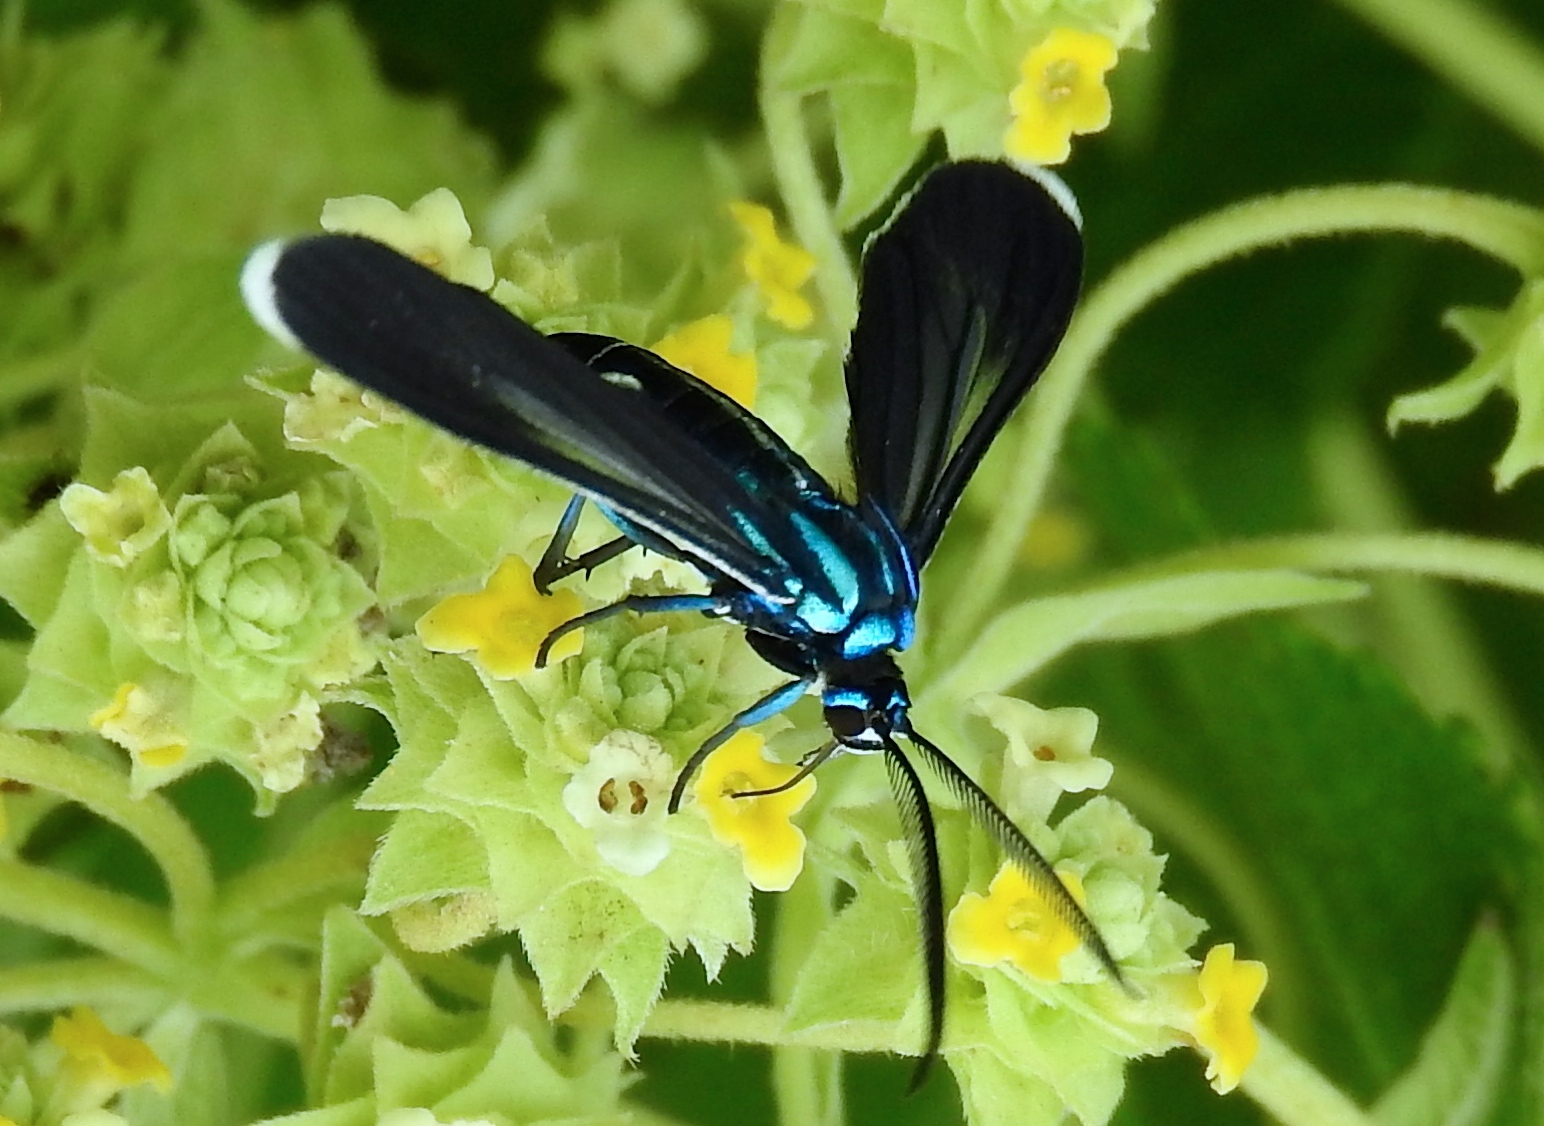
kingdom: Animalia
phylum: Arthropoda
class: Insecta
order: Lepidoptera
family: Erebidae
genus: Uranophora
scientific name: Uranophora leucotela
